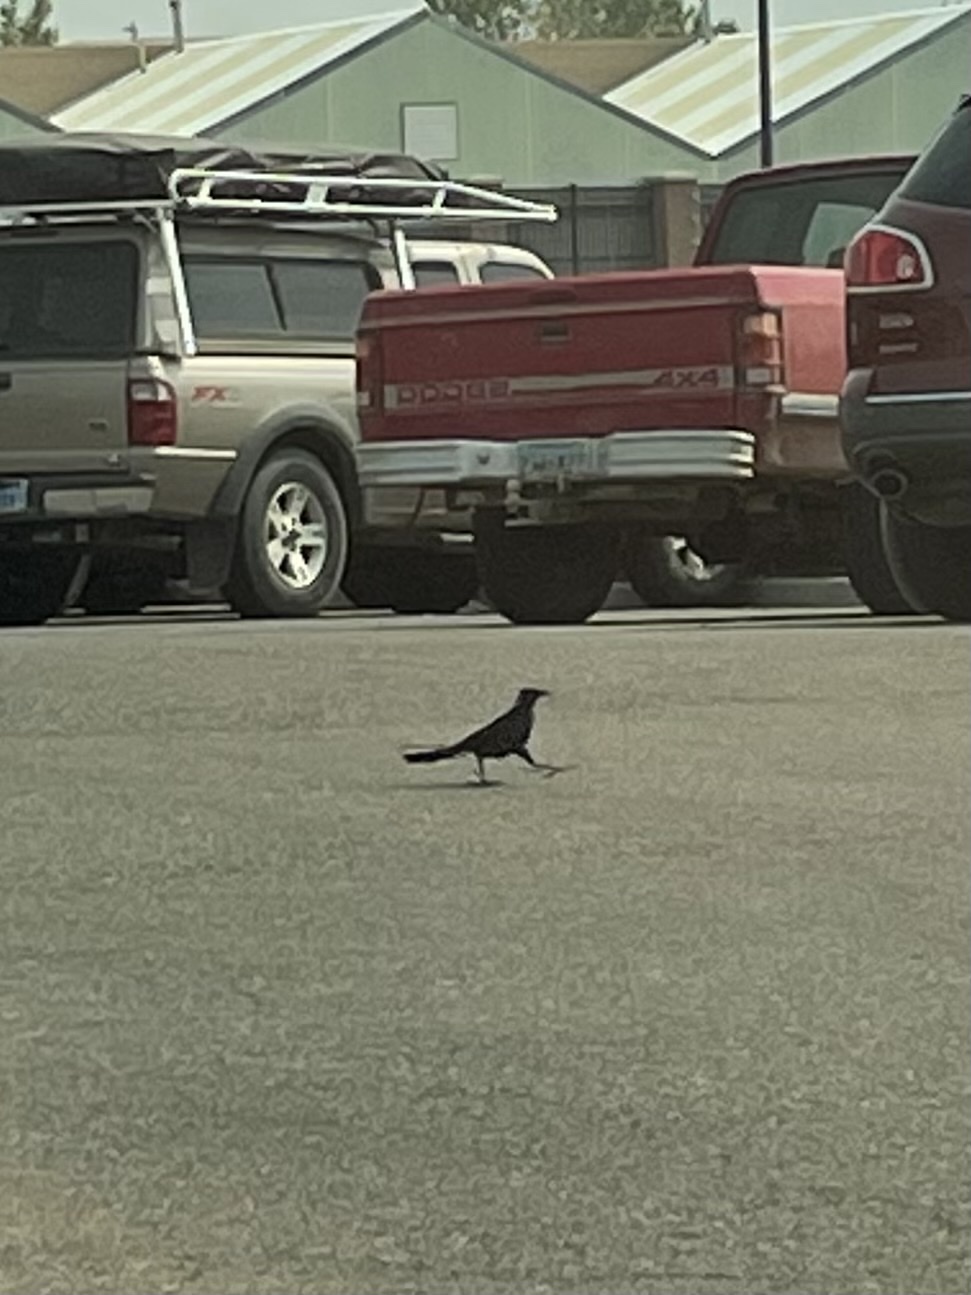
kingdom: Animalia
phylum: Chordata
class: Aves
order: Passeriformes
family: Icteridae
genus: Quiscalus
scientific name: Quiscalus mexicanus
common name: Great-tailed grackle
